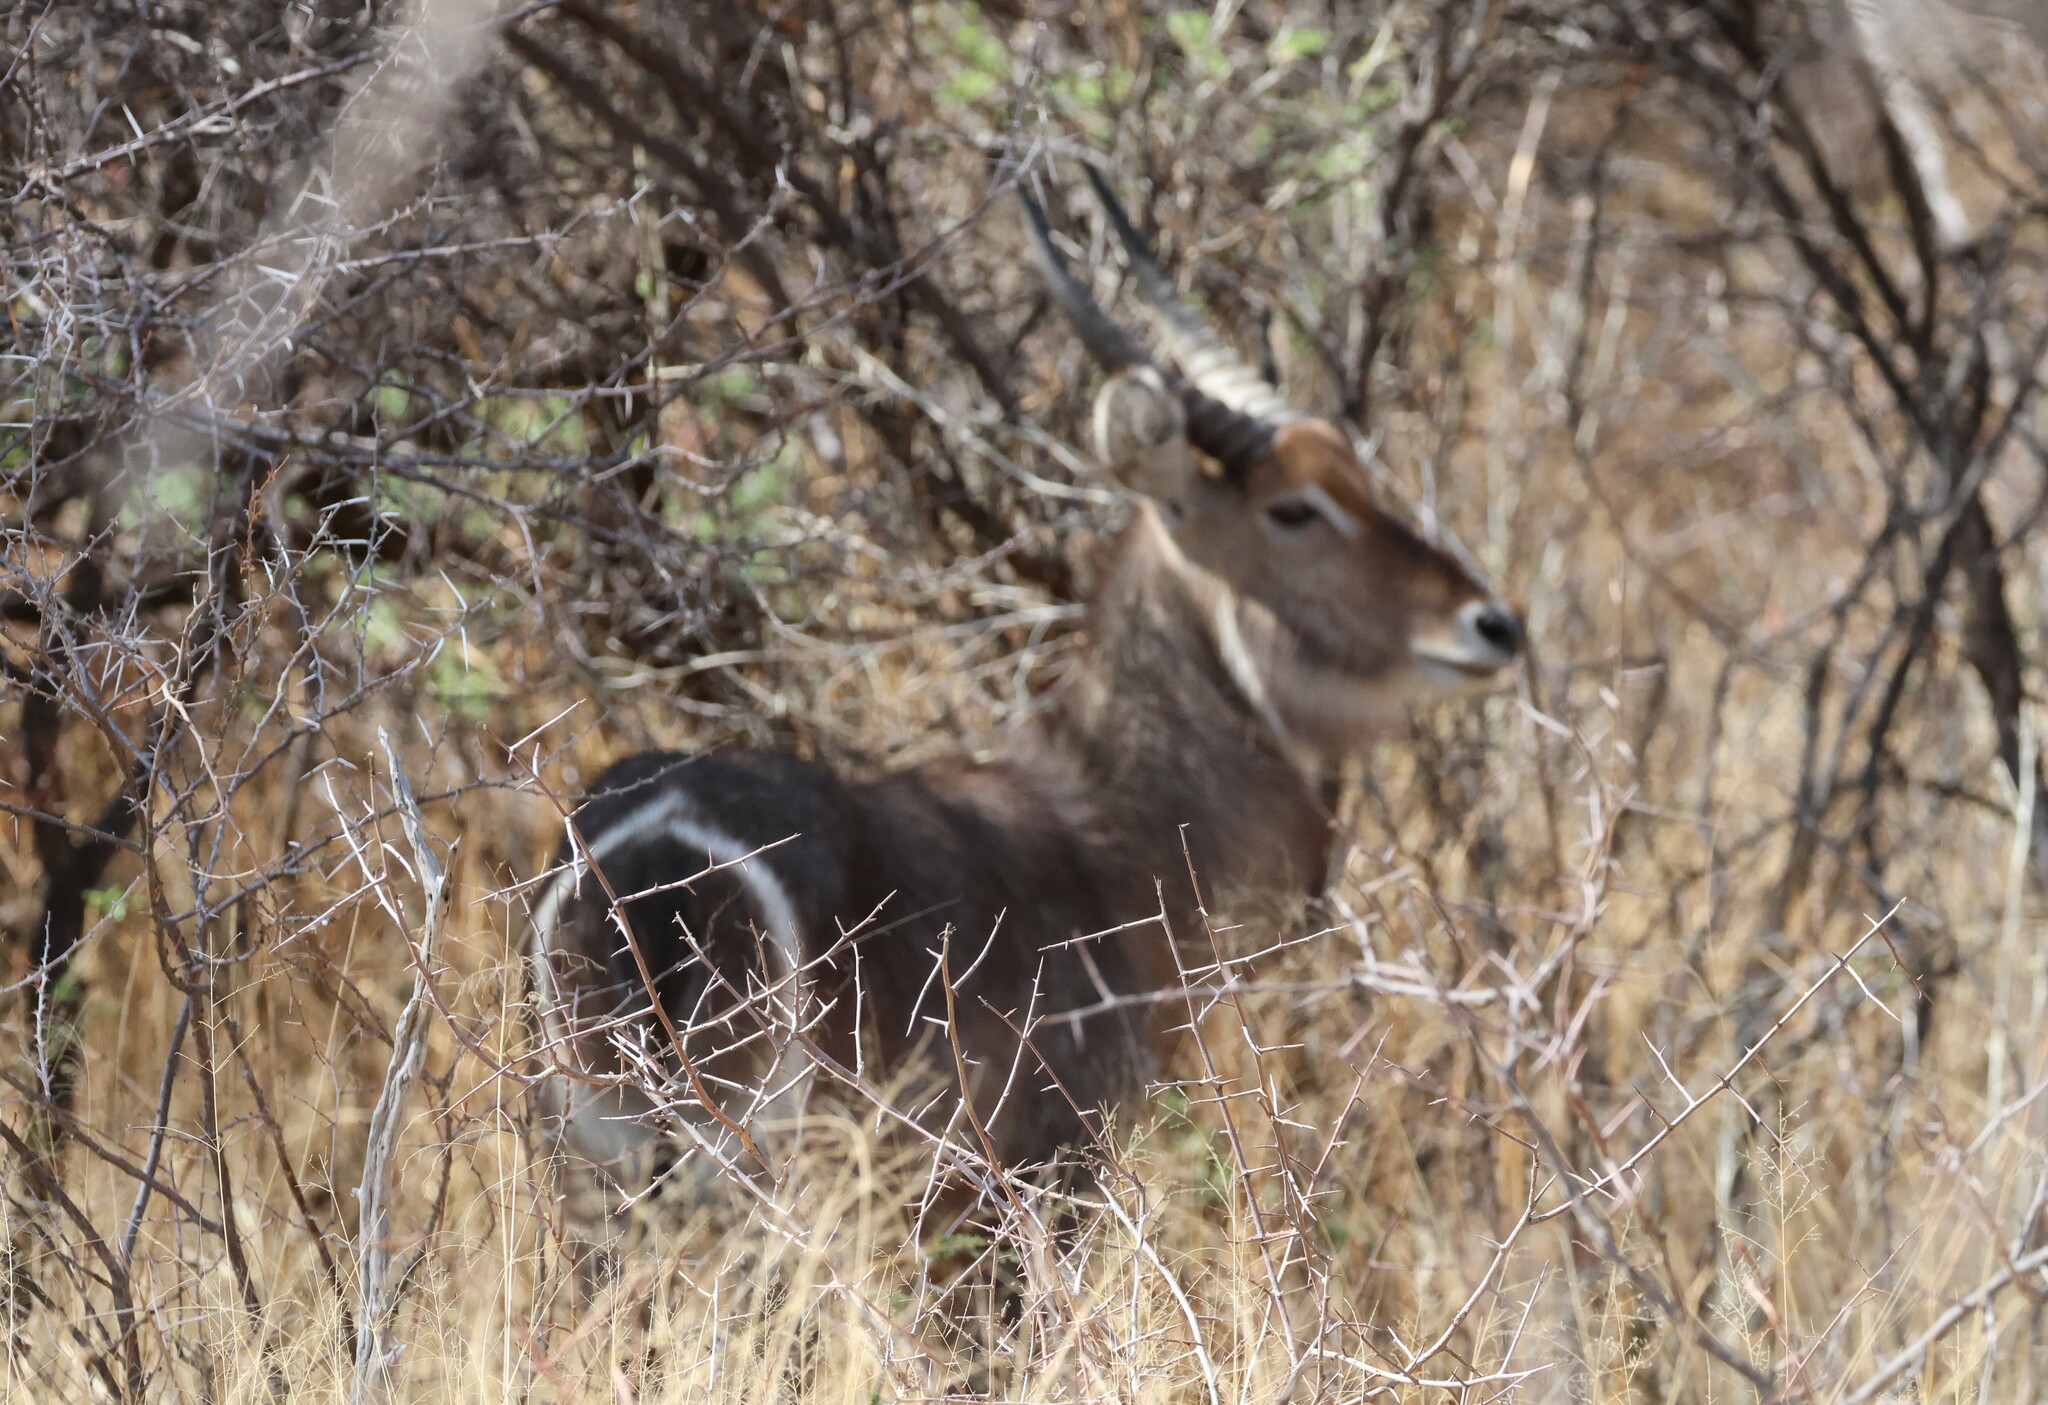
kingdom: Animalia
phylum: Chordata
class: Mammalia
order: Artiodactyla
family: Bovidae
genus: Kobus
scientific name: Kobus ellipsiprymnus
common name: Waterbuck
